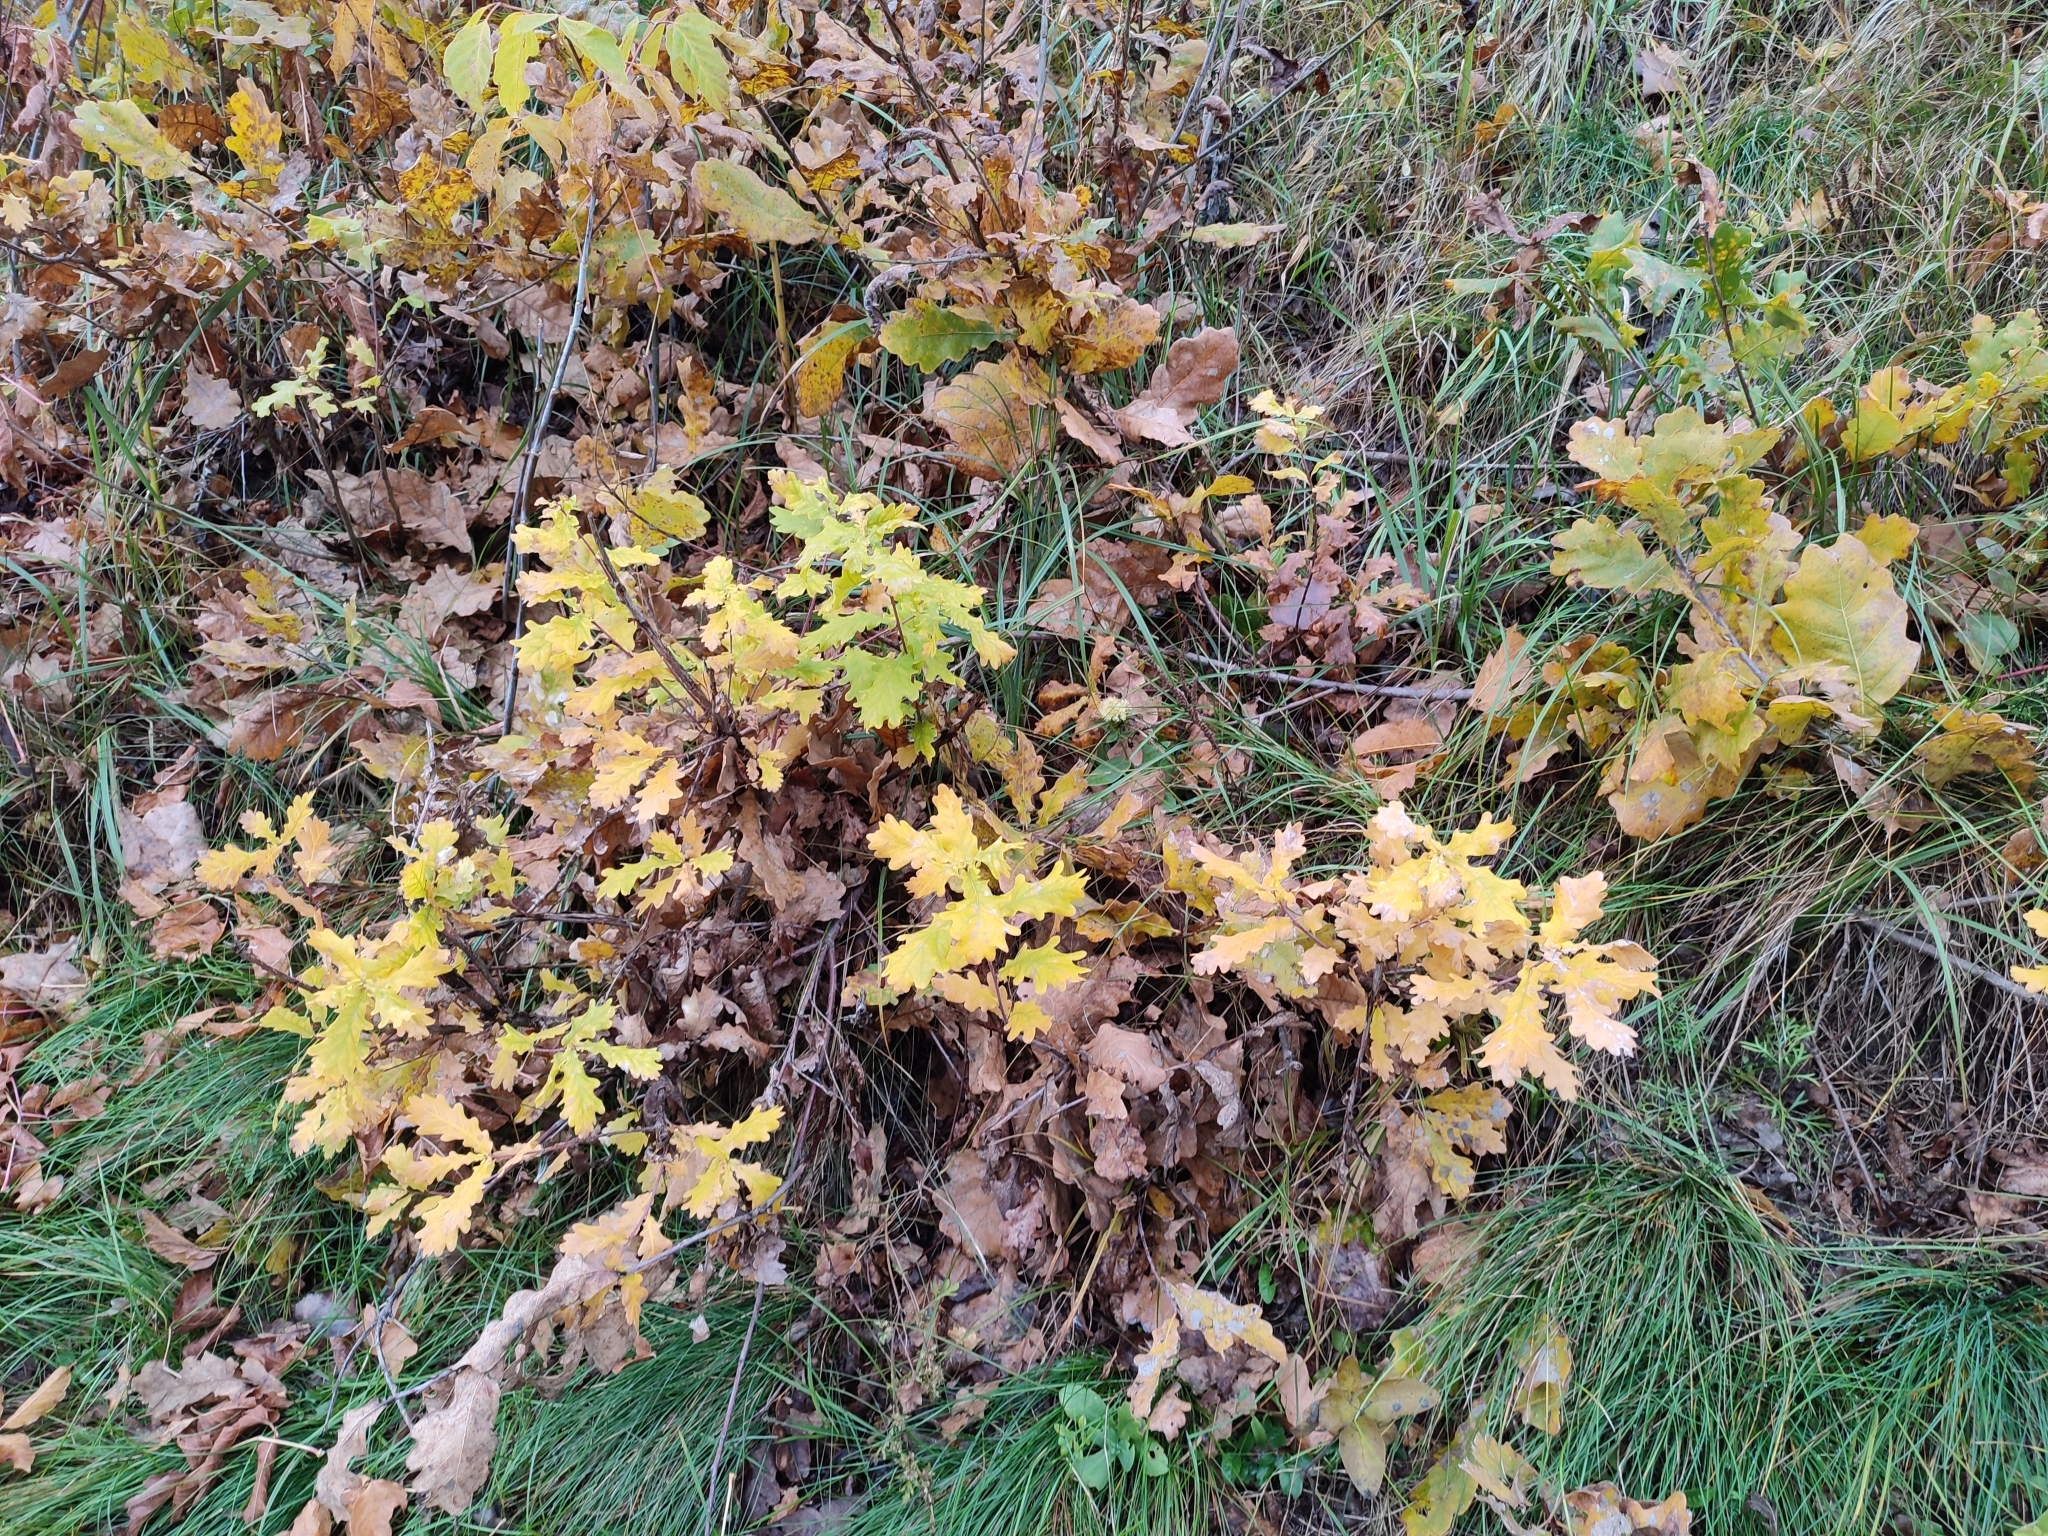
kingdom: Plantae
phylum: Tracheophyta
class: Magnoliopsida
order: Fagales
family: Fagaceae
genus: Quercus
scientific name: Quercus robur
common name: Pedunculate oak
